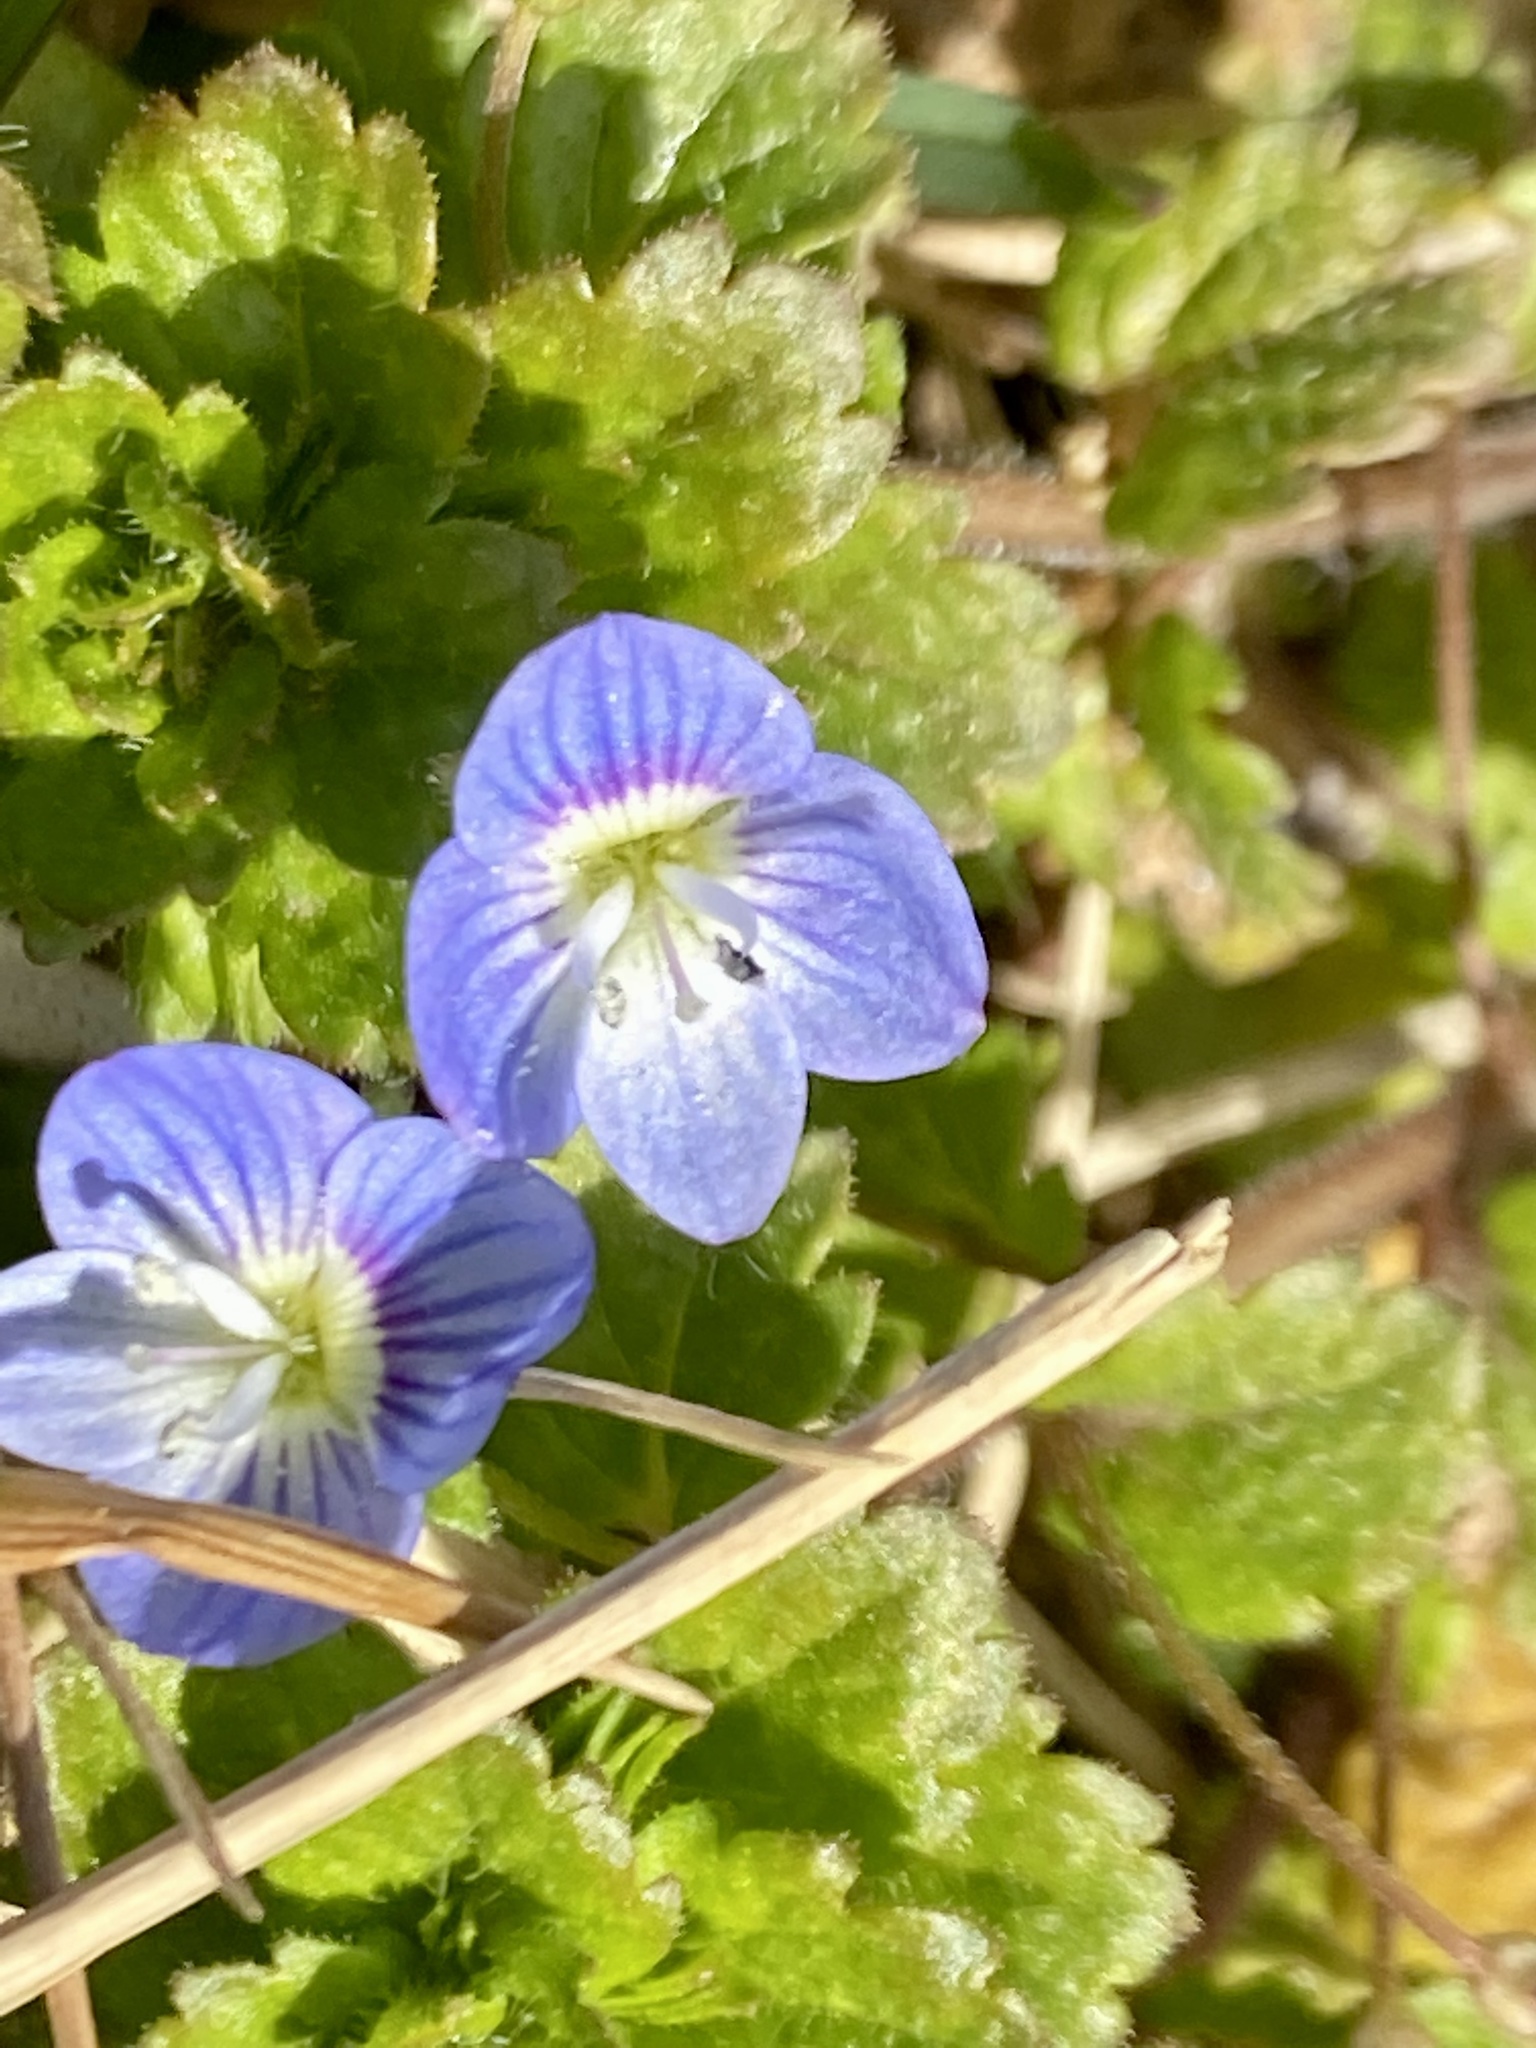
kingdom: Plantae
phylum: Tracheophyta
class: Magnoliopsida
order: Lamiales
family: Plantaginaceae
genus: Veronica
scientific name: Veronica persica
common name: Common field-speedwell
